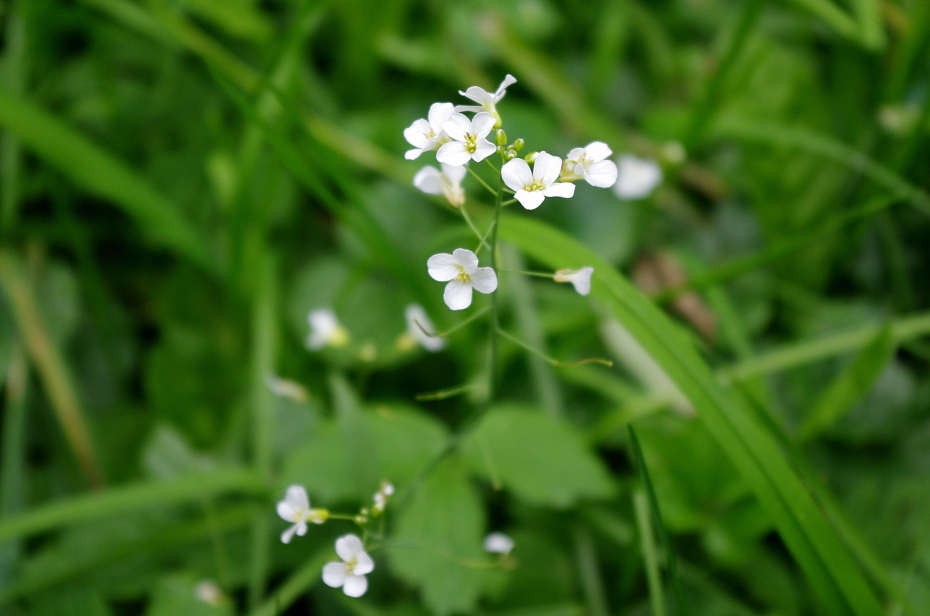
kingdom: Plantae
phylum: Tracheophyta
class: Magnoliopsida
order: Brassicales
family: Brassicaceae
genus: Arabidopsis
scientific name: Arabidopsis arenosa
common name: Sand rock-cress
